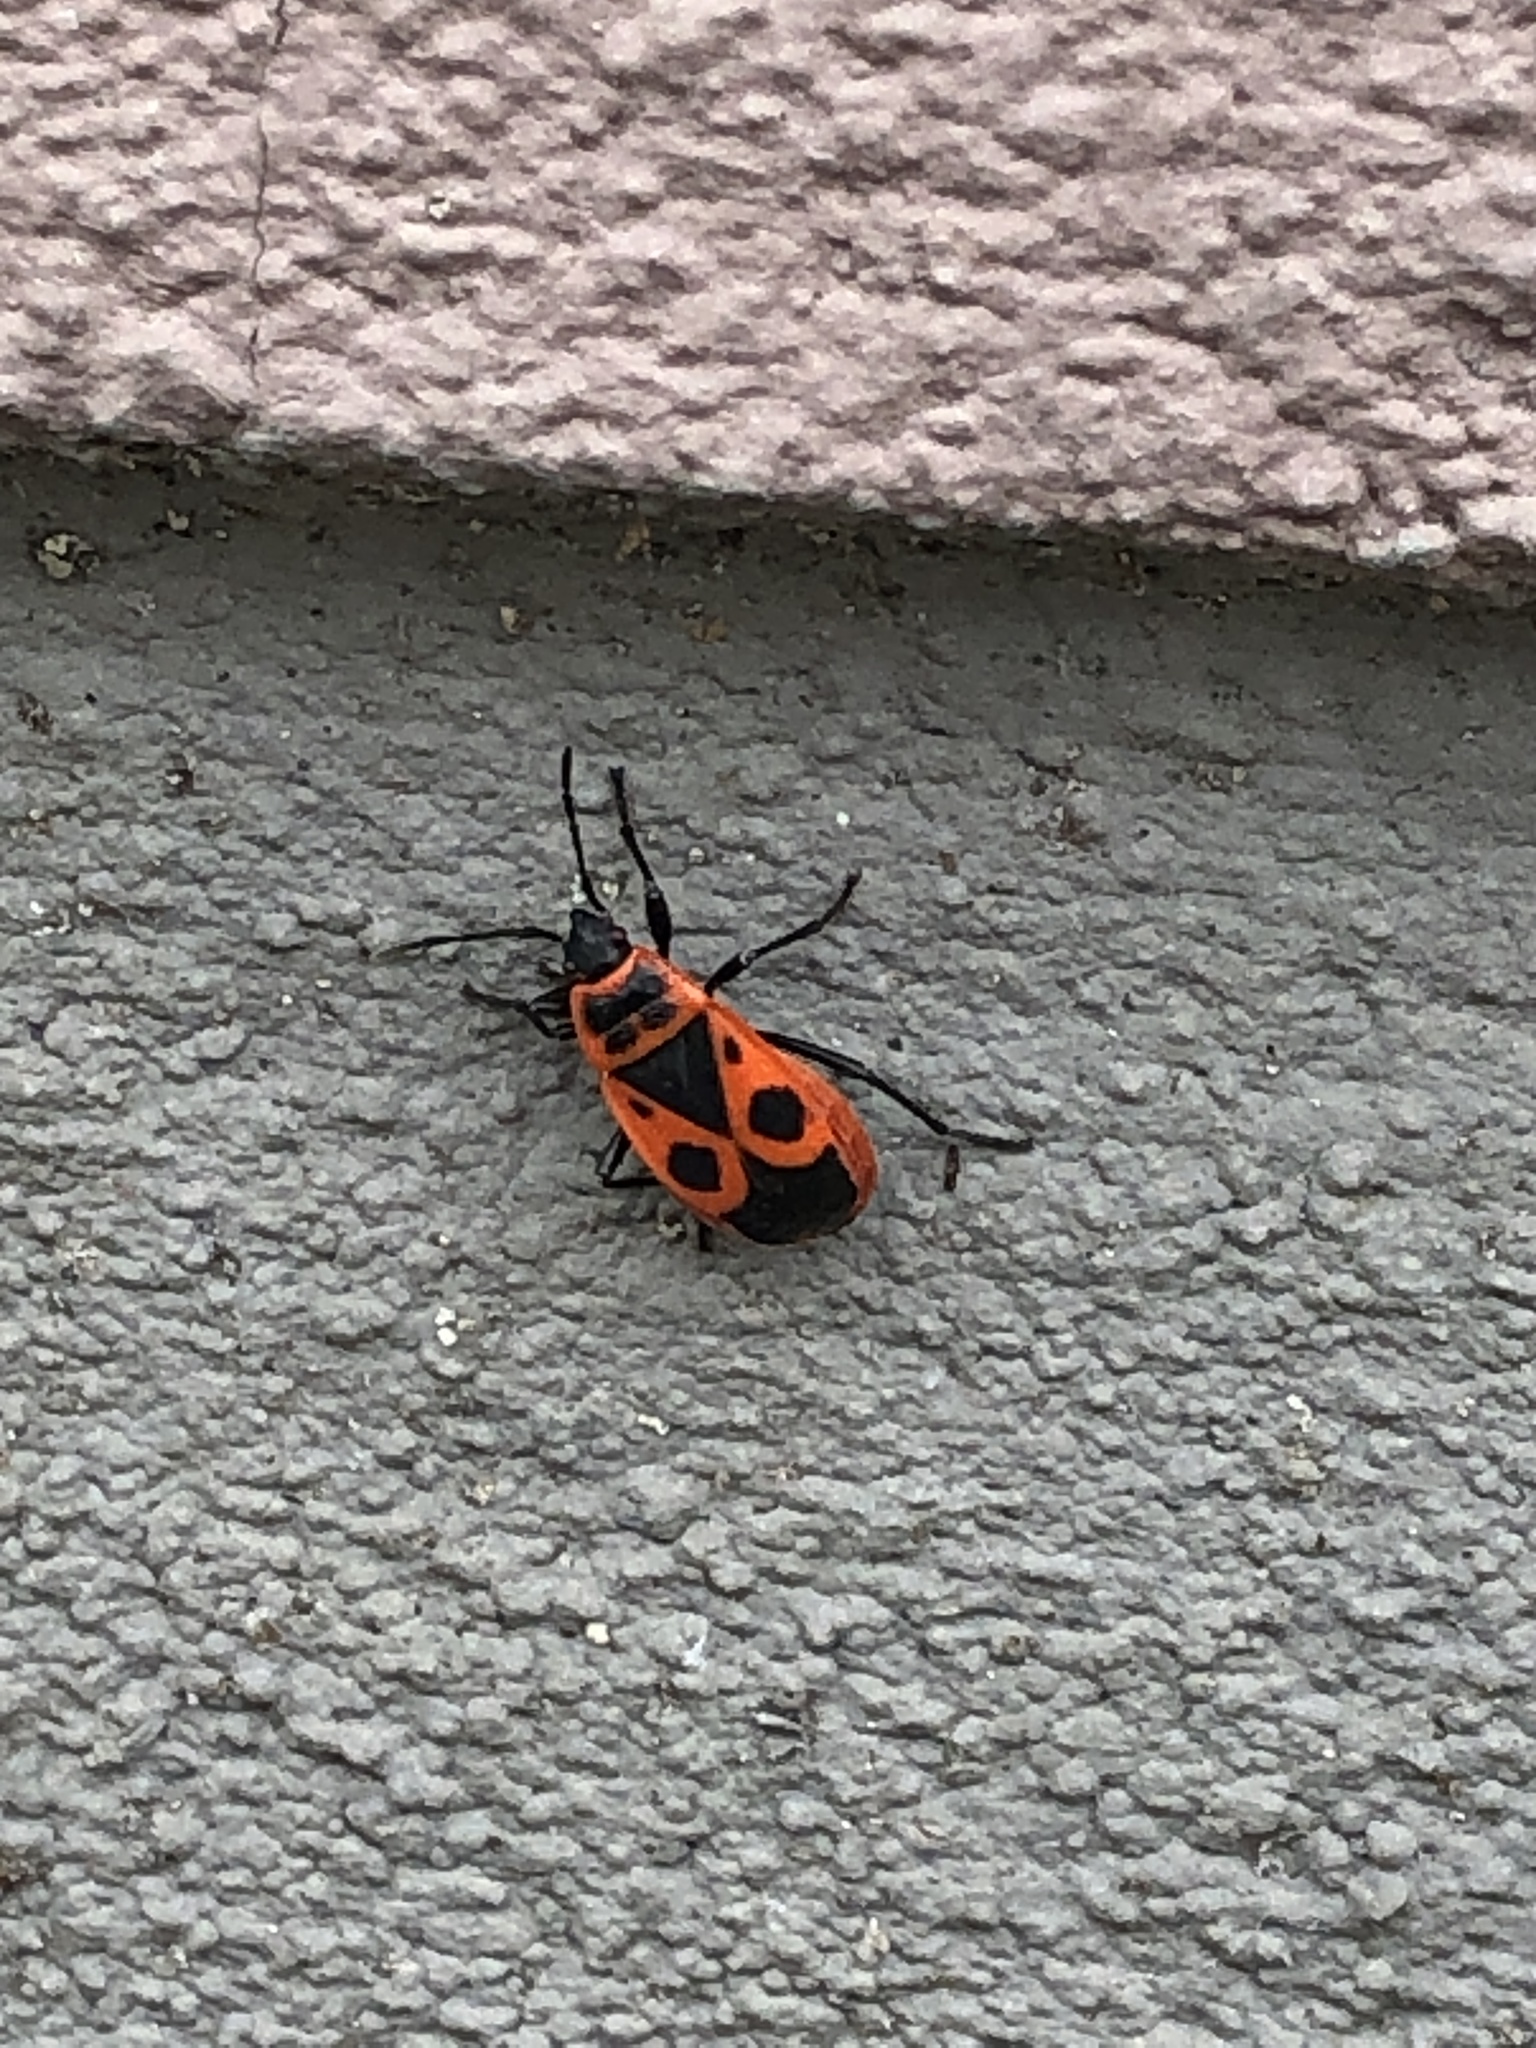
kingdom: Animalia
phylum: Arthropoda
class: Insecta
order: Hemiptera
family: Pyrrhocoridae
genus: Pyrrhocoris
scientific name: Pyrrhocoris apterus
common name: Firebug
